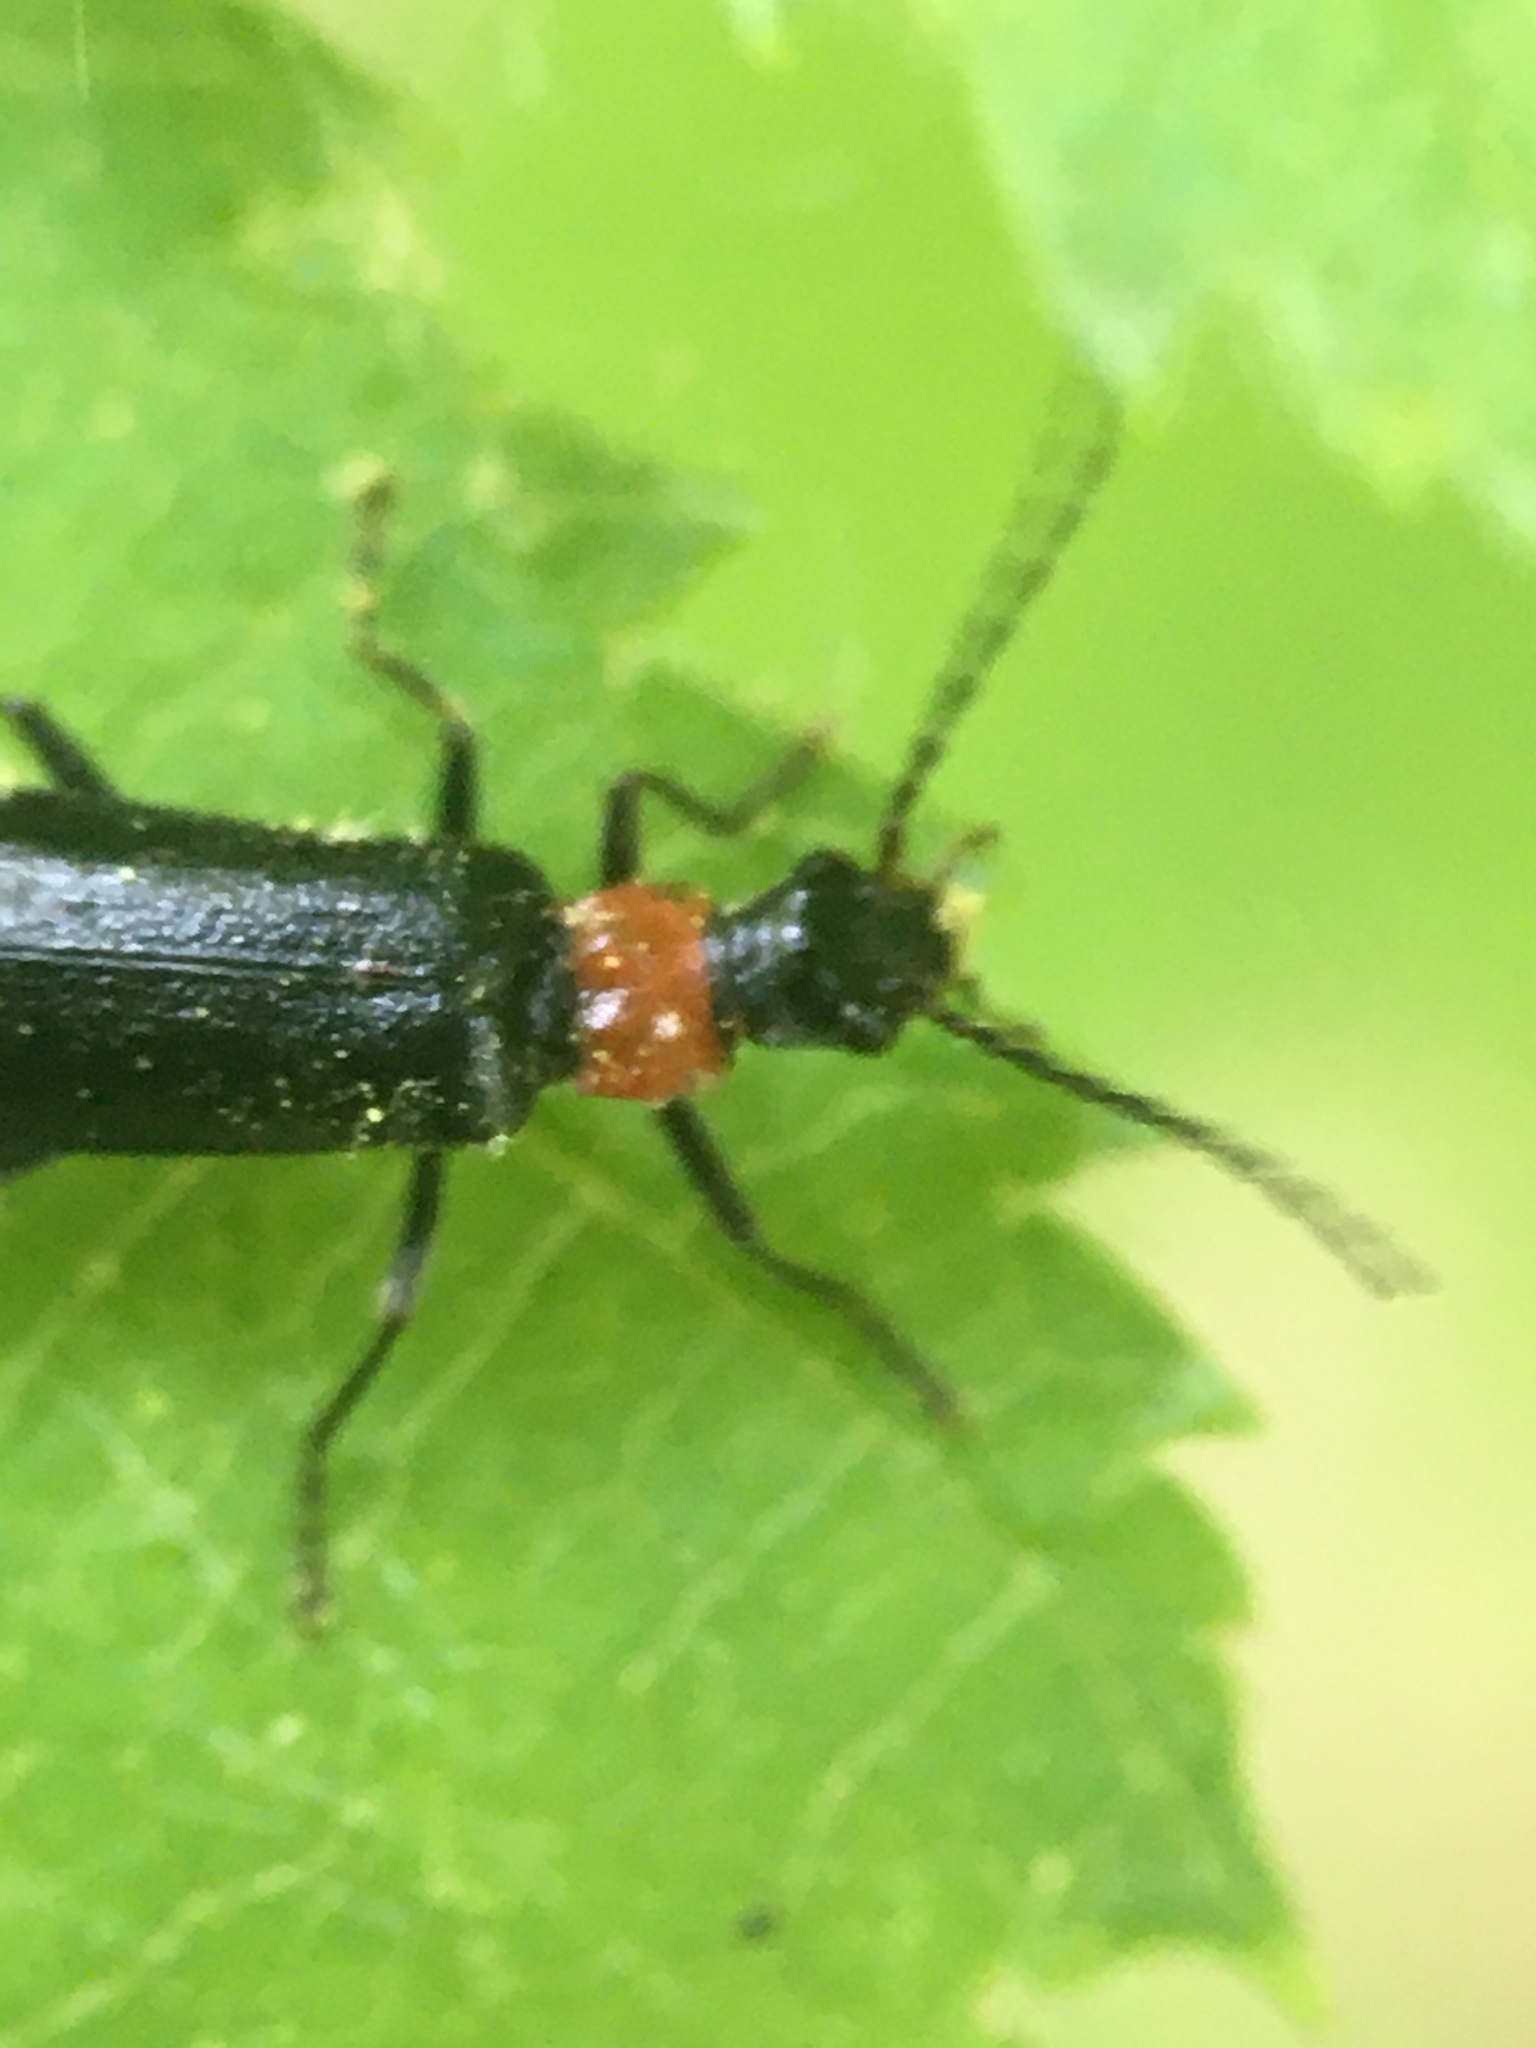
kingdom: Animalia
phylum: Arthropoda
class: Insecta
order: Coleoptera
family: Cantharidae
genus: Dichelotarsus
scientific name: Dichelotarsus pattoni
